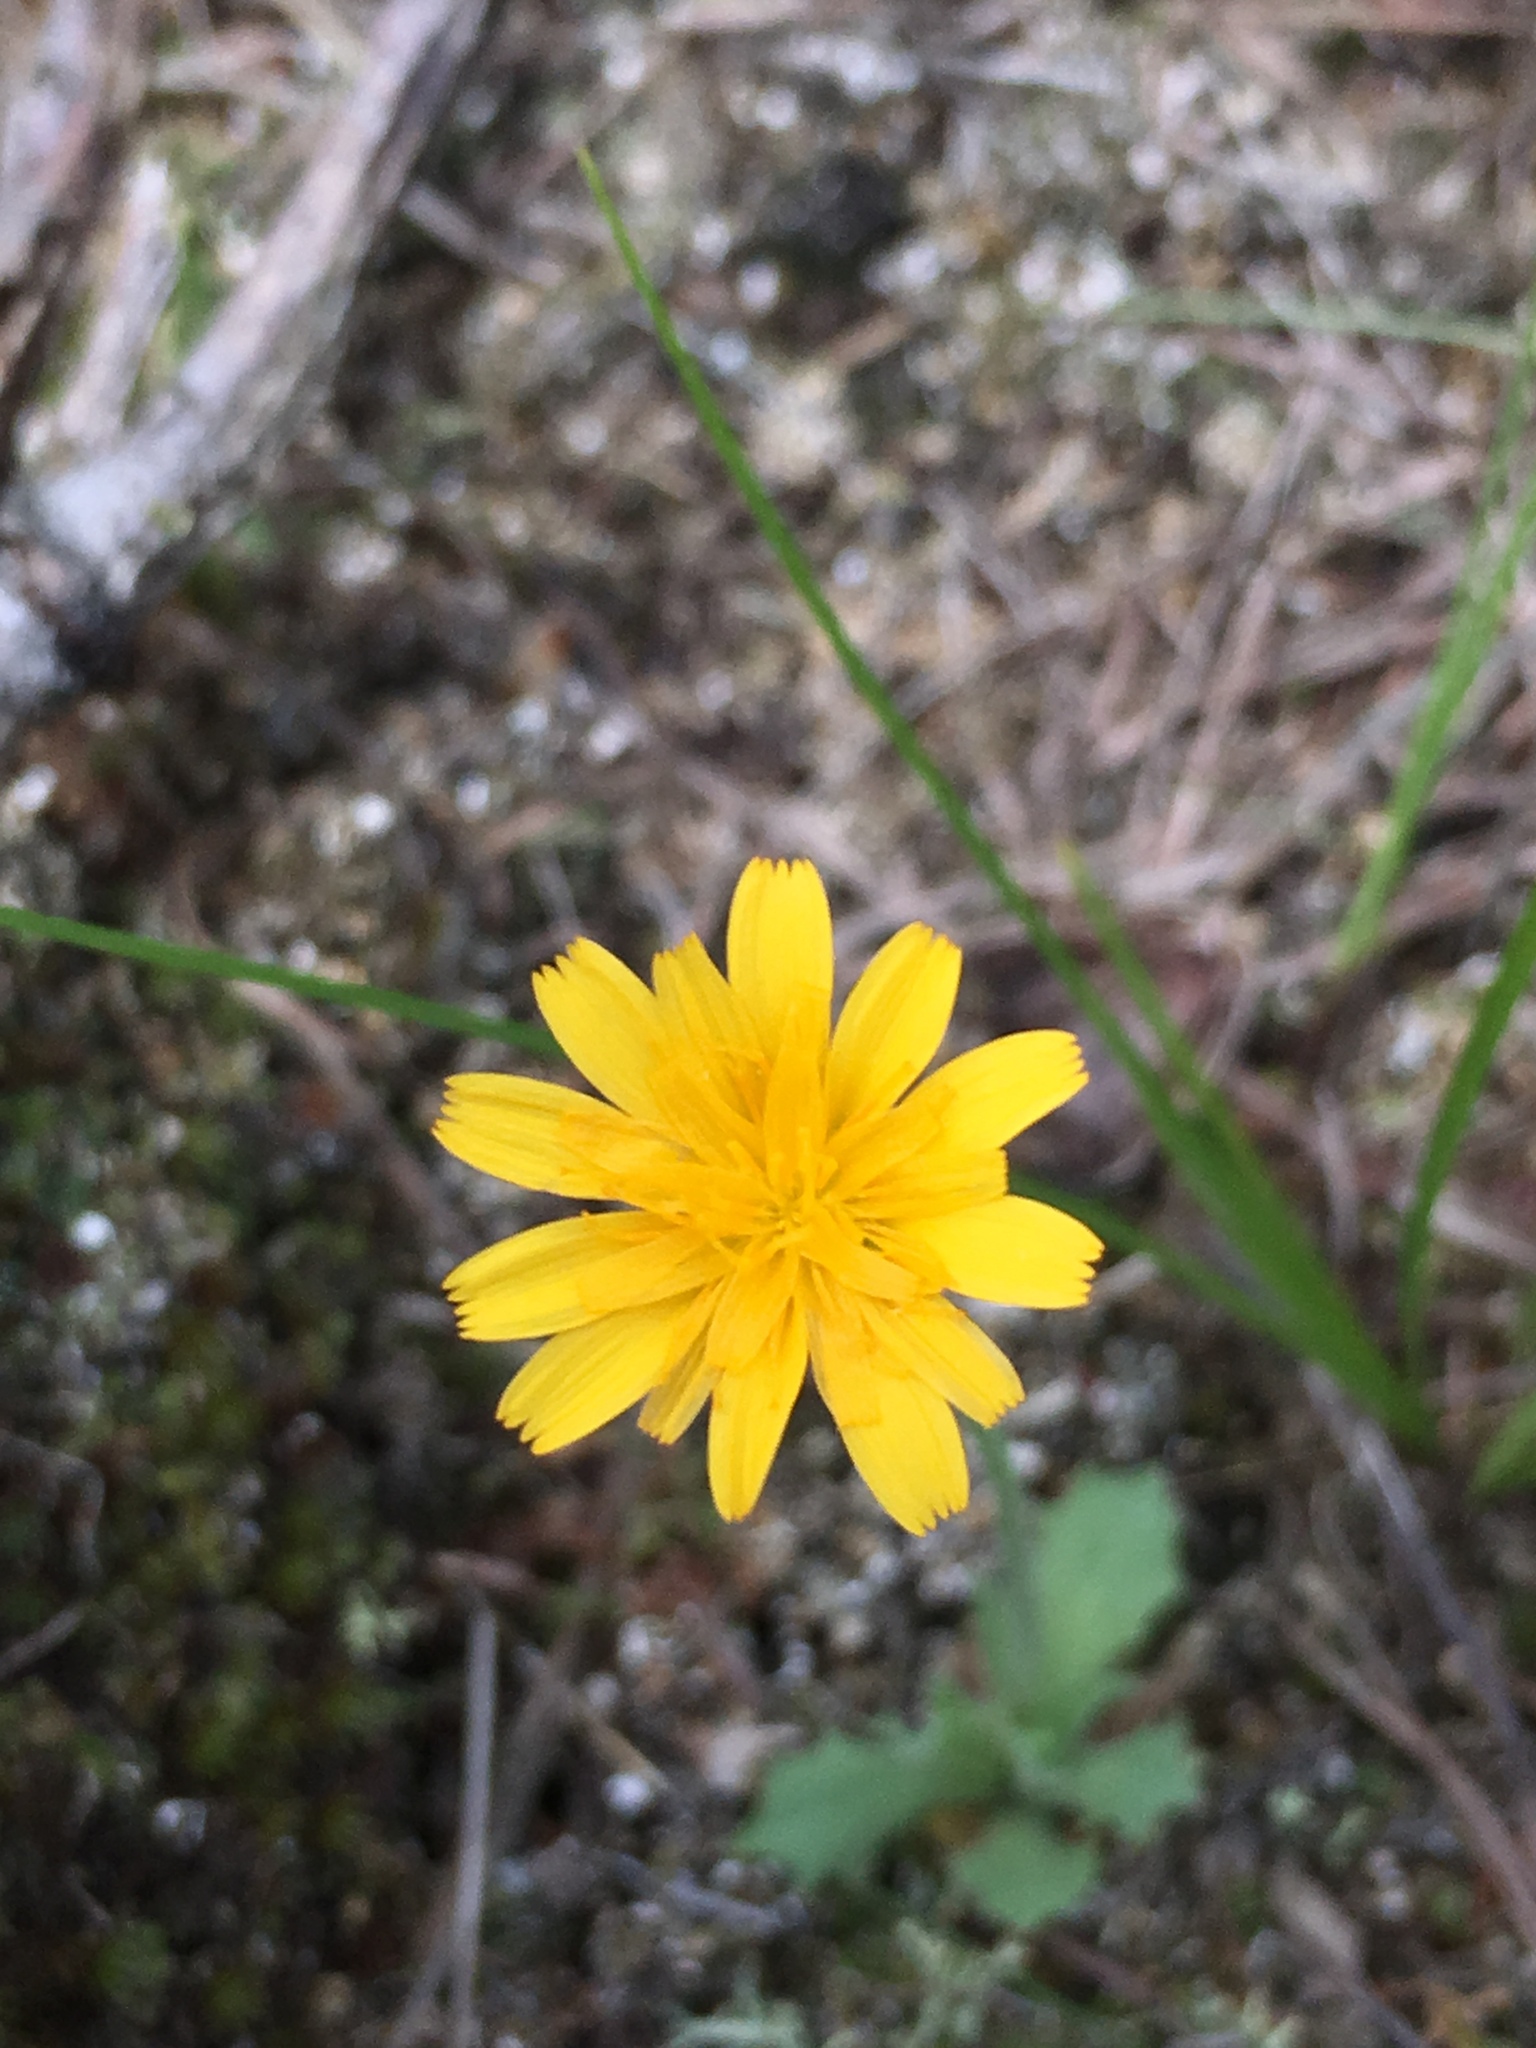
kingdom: Plantae
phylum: Tracheophyta
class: Magnoliopsida
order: Asterales
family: Asteraceae
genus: Krigia
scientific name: Krigia virginica
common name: Virginia dwarf-dandelion
